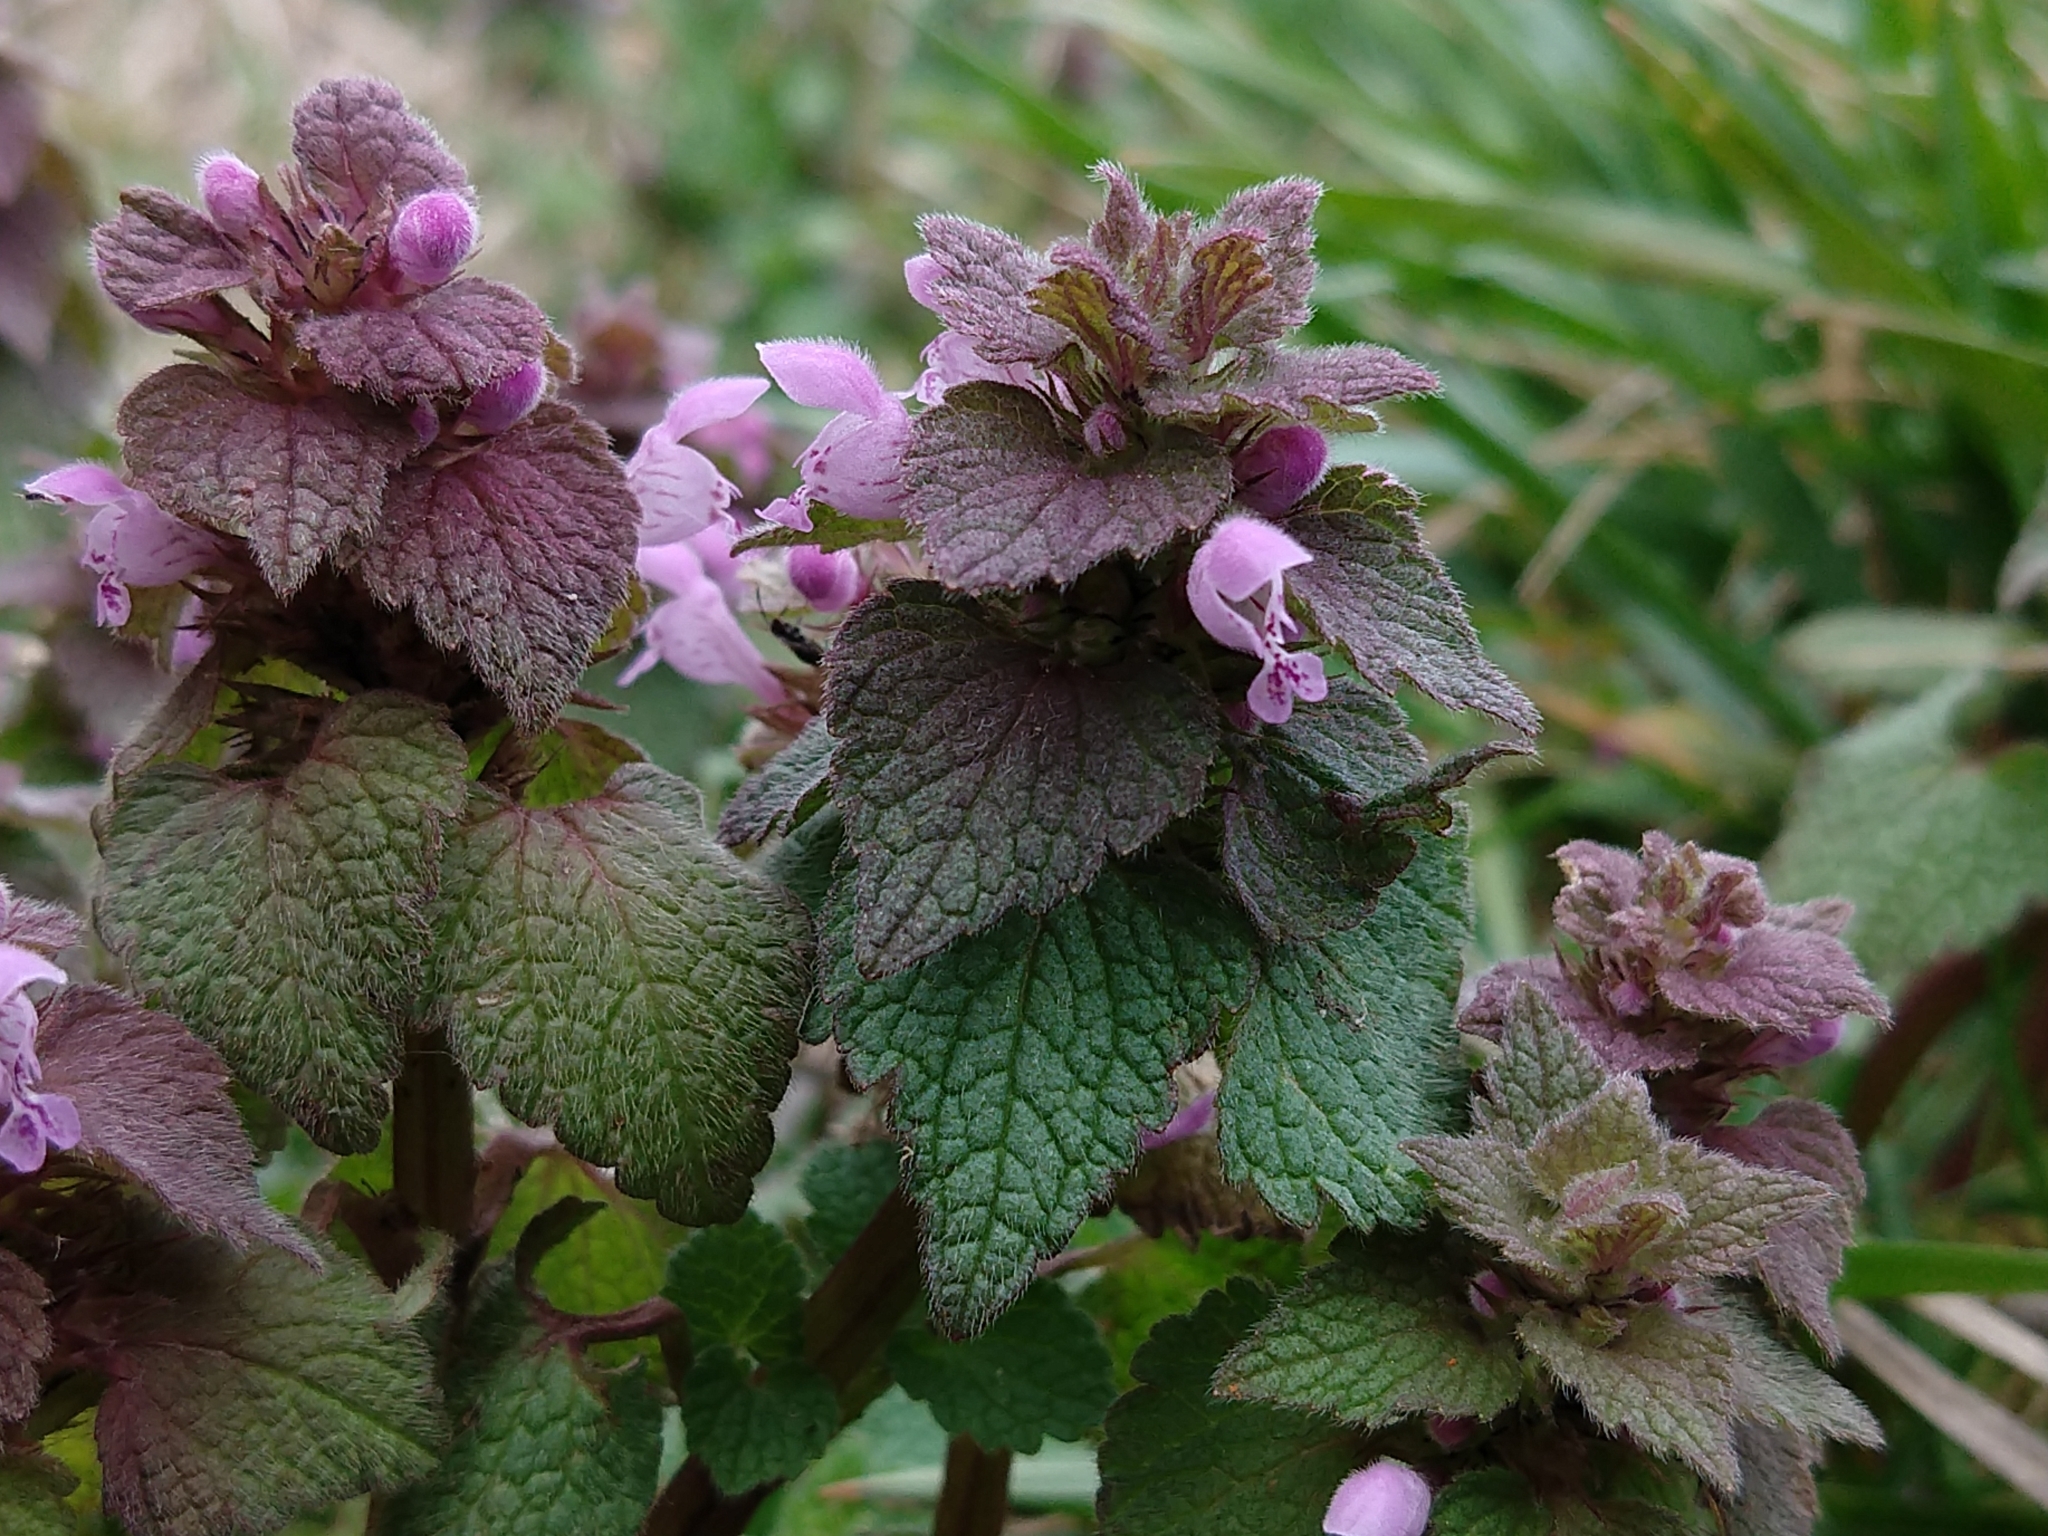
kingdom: Plantae
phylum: Tracheophyta
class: Magnoliopsida
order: Lamiales
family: Lamiaceae
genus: Lamium
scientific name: Lamium purpureum
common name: Red dead-nettle
